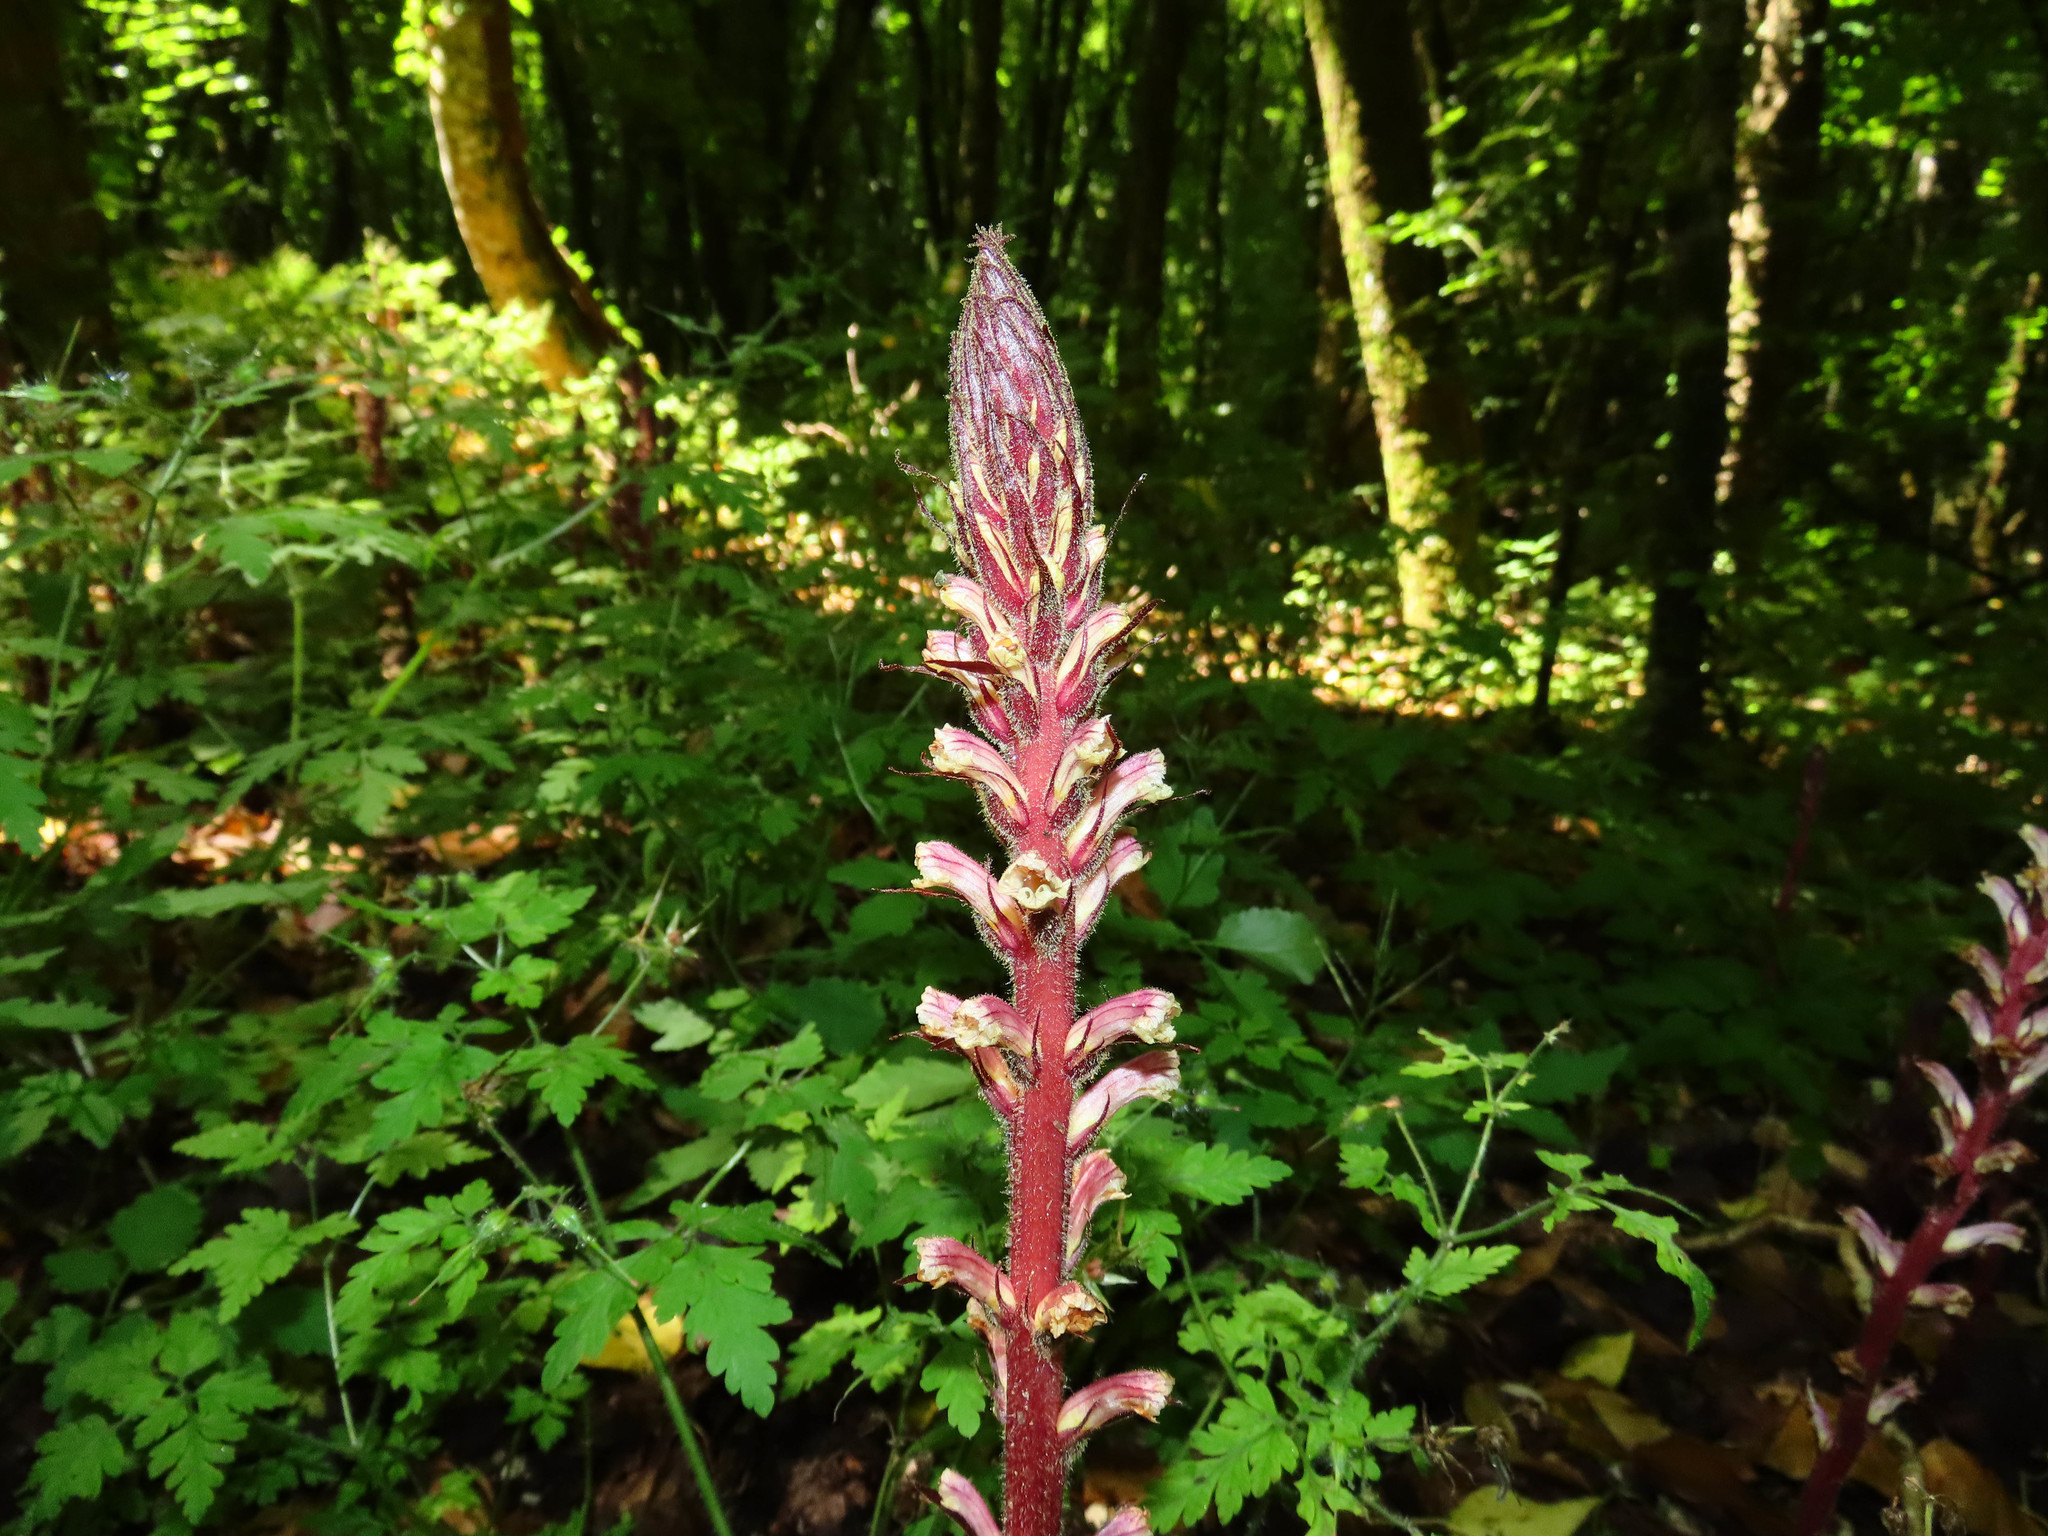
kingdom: Plantae
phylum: Tracheophyta
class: Magnoliopsida
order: Lamiales
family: Orobanchaceae
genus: Orobanche
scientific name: Orobanche hederae
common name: Ivy broomrape
